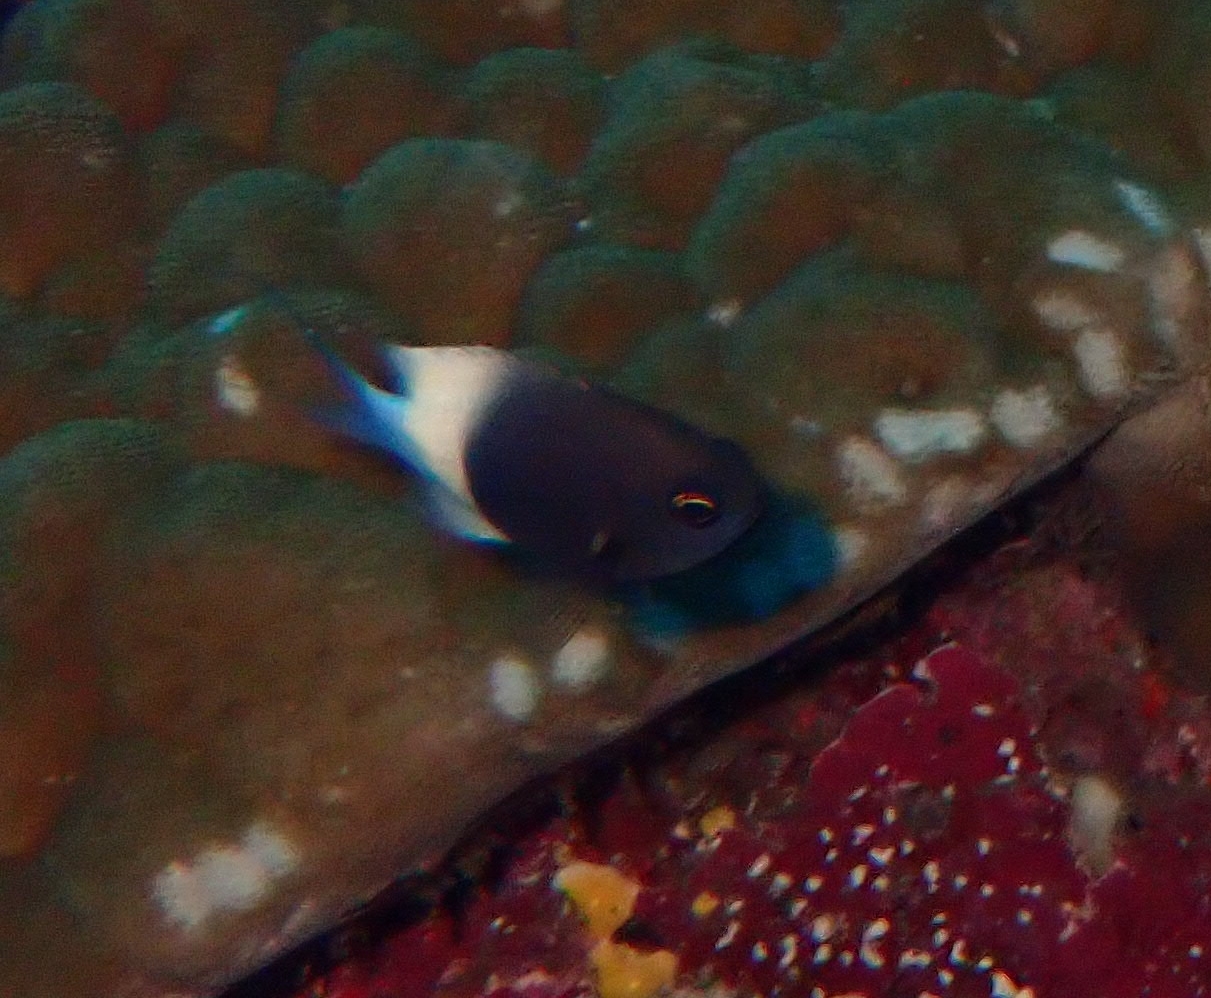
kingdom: Animalia
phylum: Chordata
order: Perciformes
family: Pomacentridae
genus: Chromis
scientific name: Chromis fieldi
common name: Chocolatedip chromis
